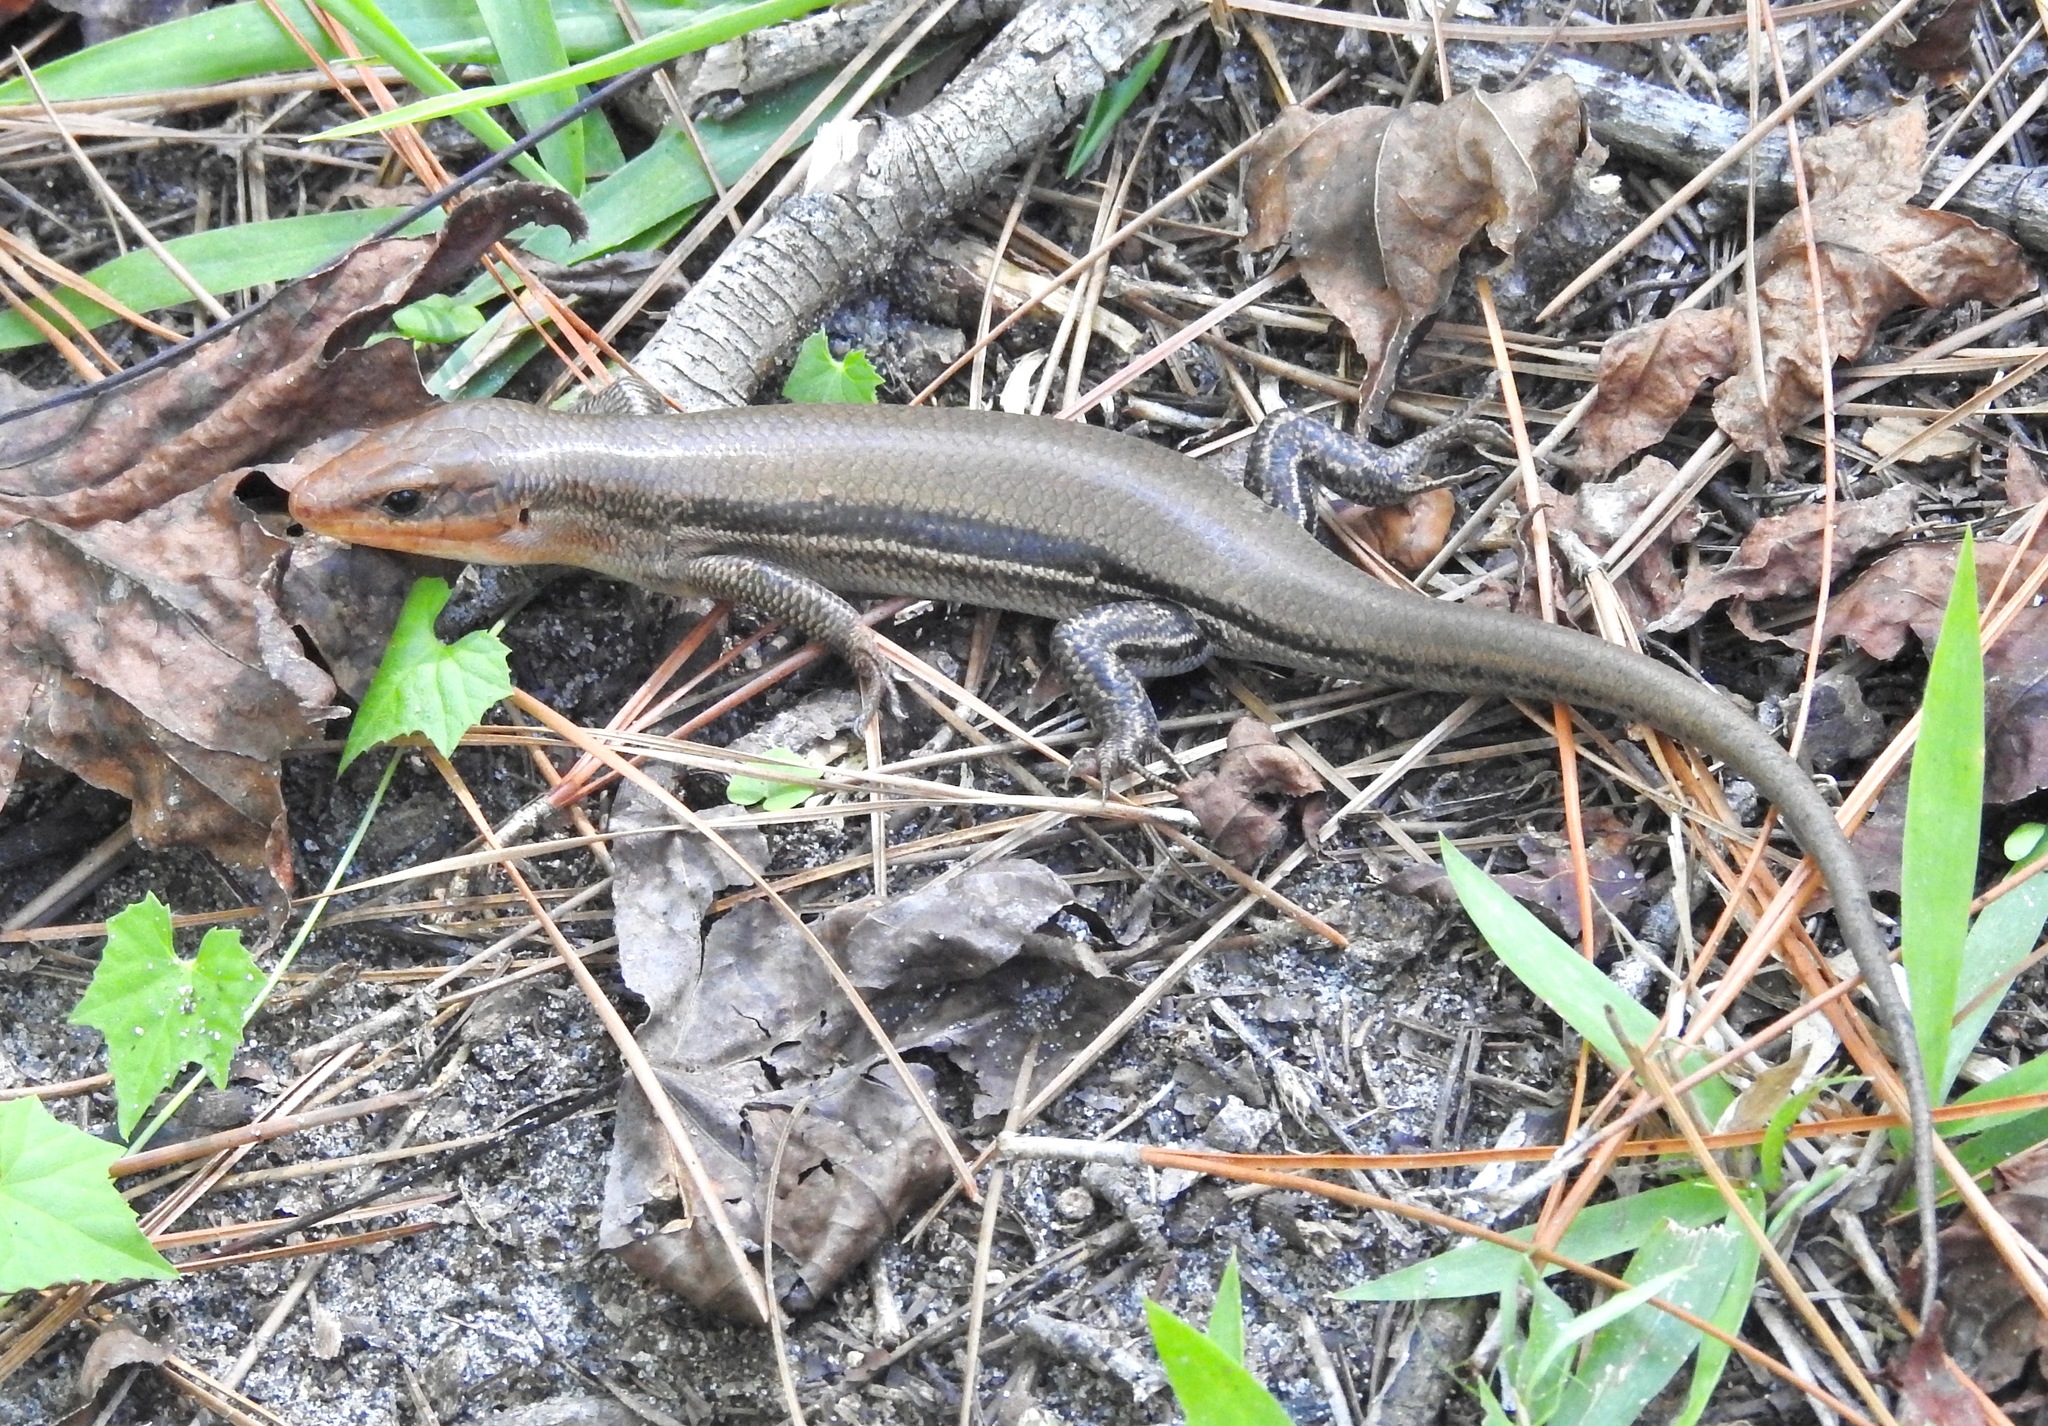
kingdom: Animalia
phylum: Chordata
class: Squamata
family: Scincidae
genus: Plestiodon
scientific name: Plestiodon laticeps
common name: Broadhead skink
